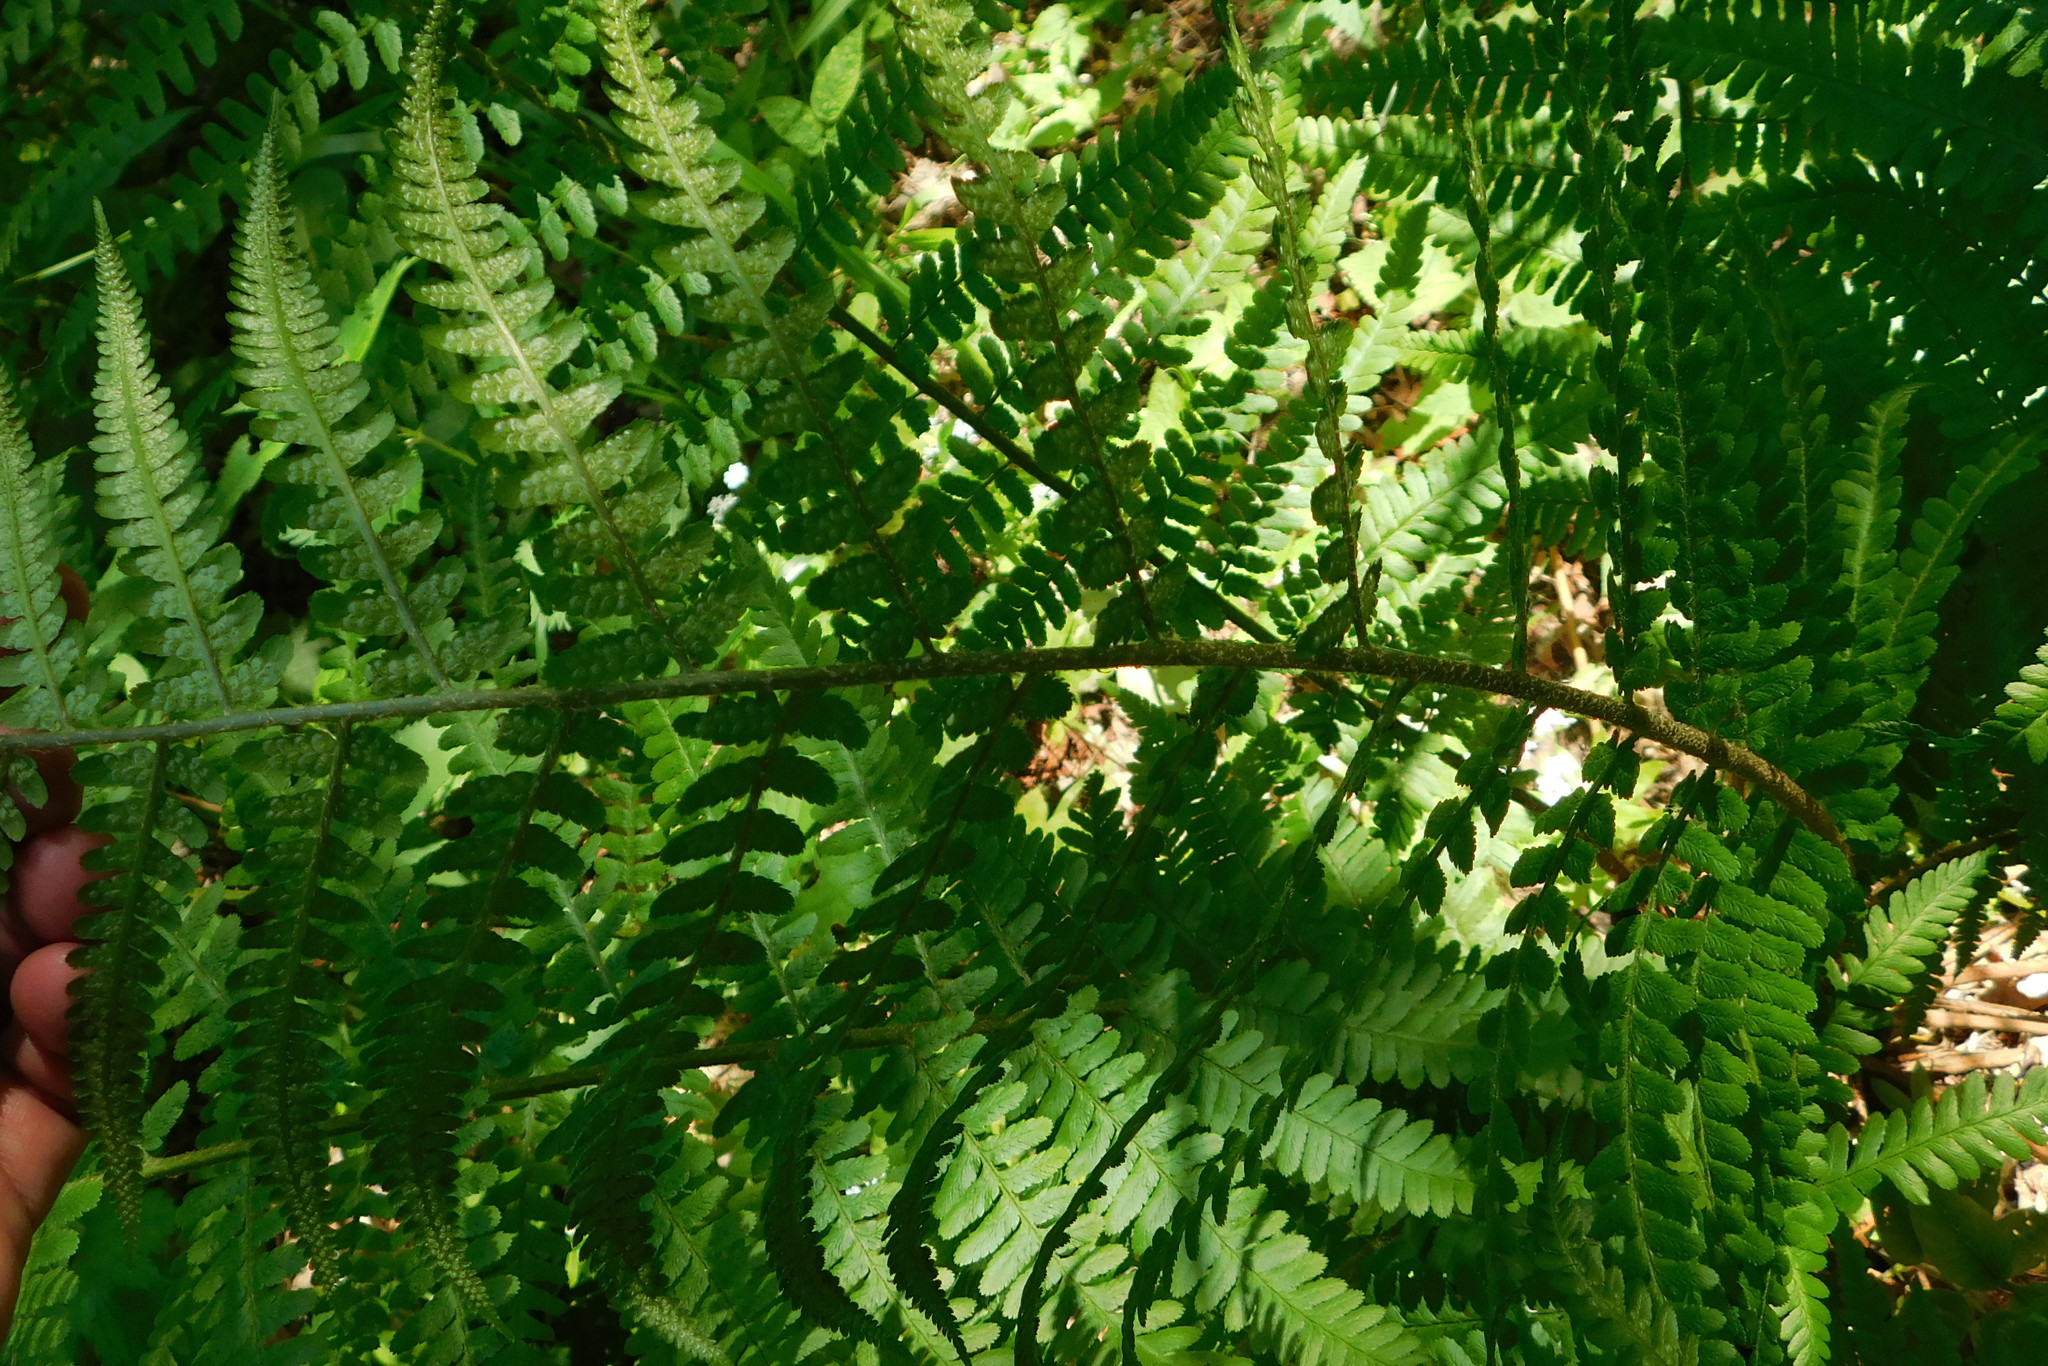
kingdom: Plantae
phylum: Tracheophyta
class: Polypodiopsida
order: Polypodiales
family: Dryopteridaceae
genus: Dryopteris
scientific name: Dryopteris filix-mas
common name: Male fern
